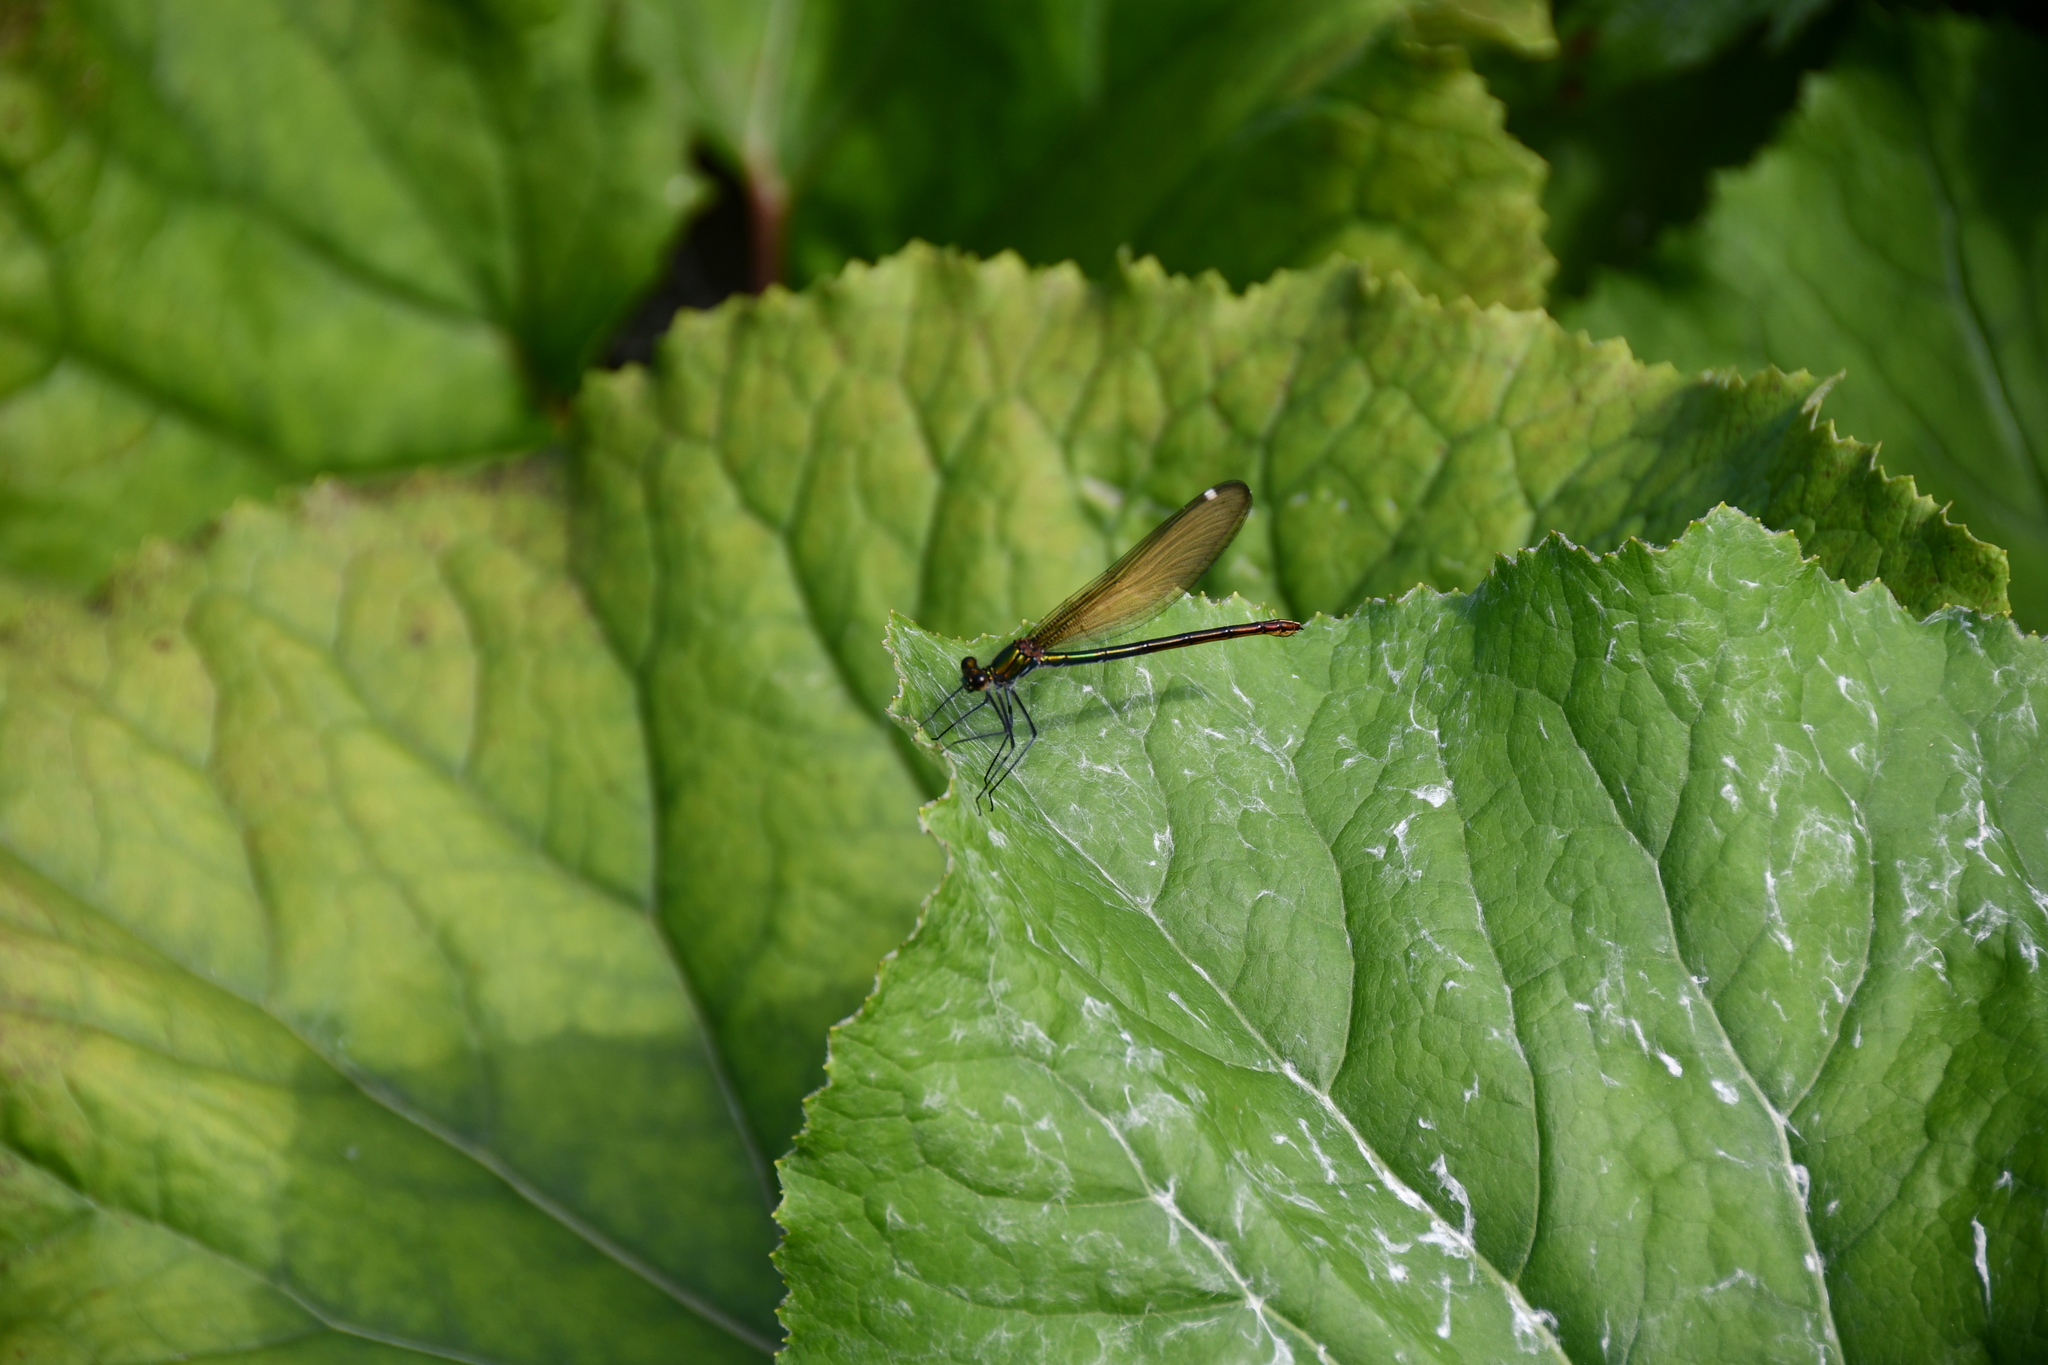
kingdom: Animalia
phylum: Arthropoda
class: Insecta
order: Odonata
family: Calopterygidae
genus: Calopteryx
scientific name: Calopteryx virgo
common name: Beautiful demoiselle
